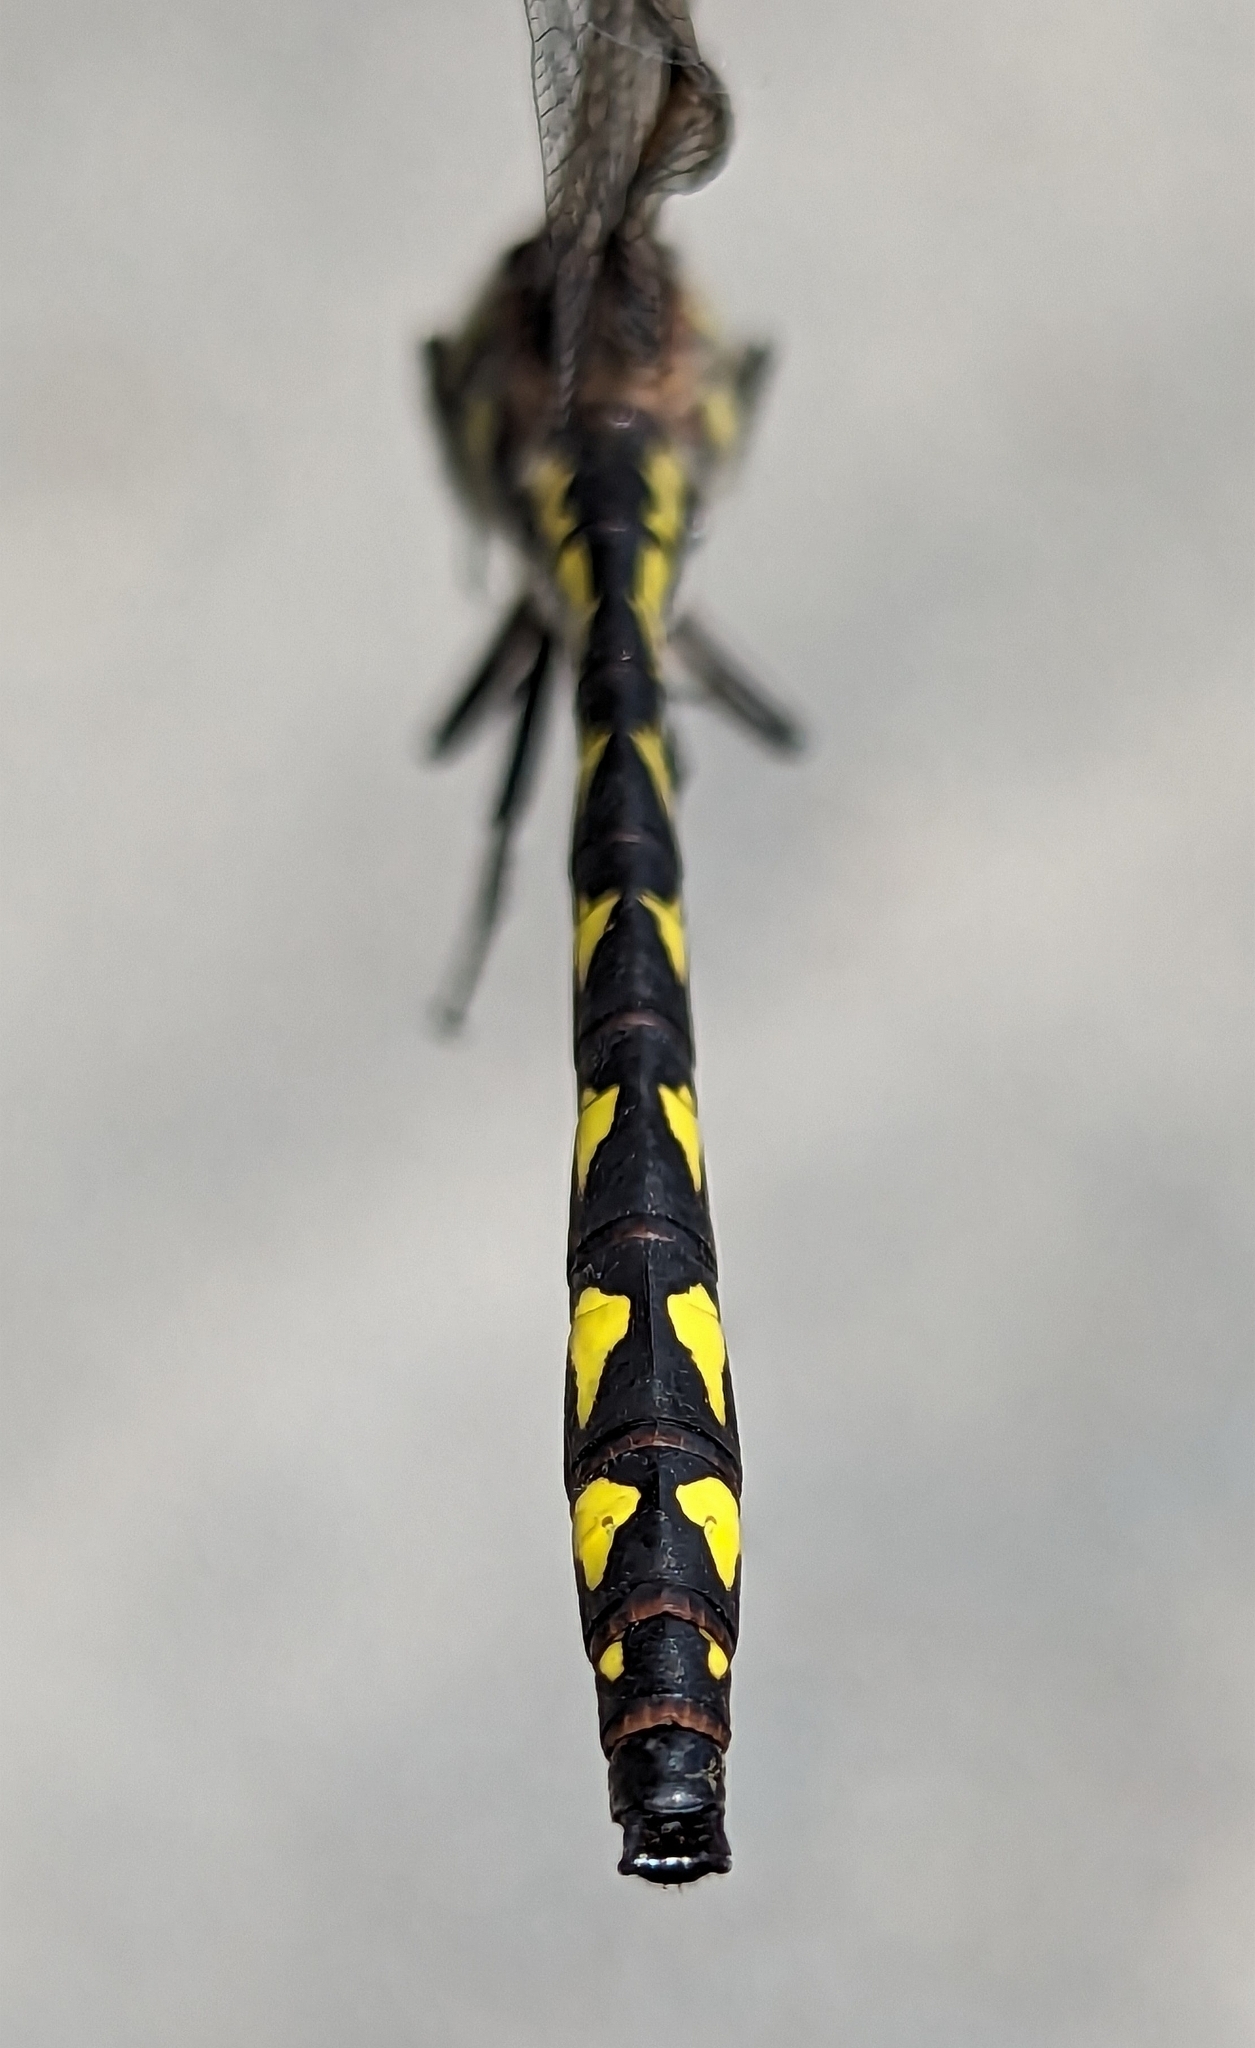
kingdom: Animalia
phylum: Arthropoda
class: Insecta
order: Odonata
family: Cordulegastridae
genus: Cordulegaster
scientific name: Cordulegaster diastatops
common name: Delta-spotted spiketail
